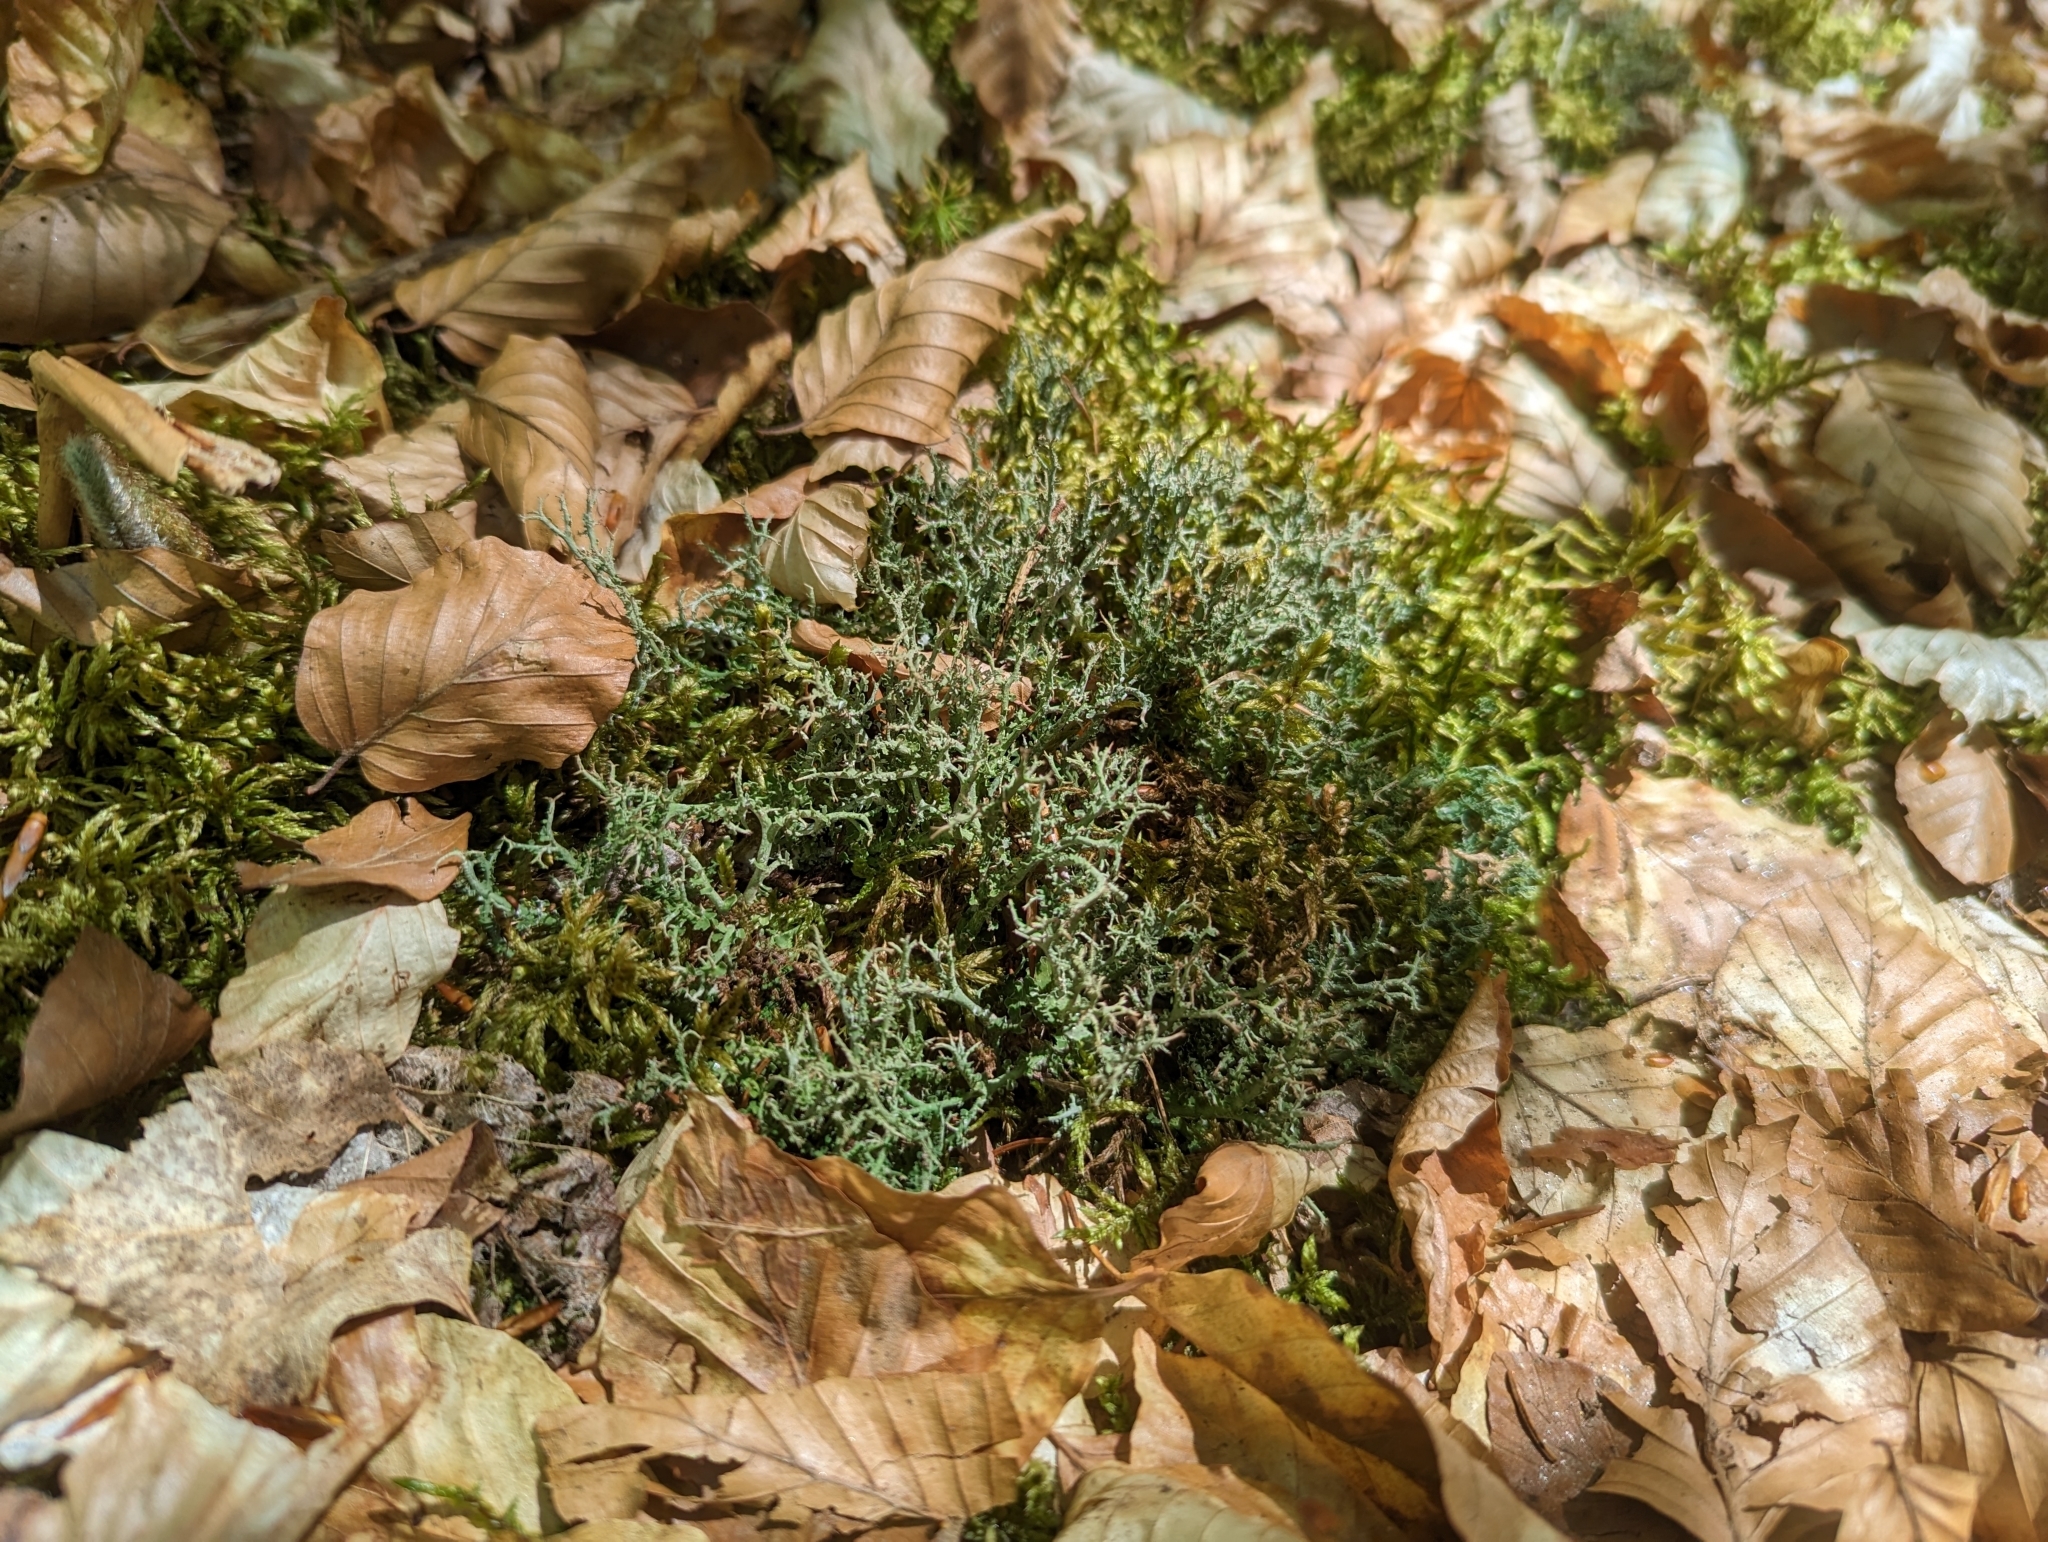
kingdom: Fungi
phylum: Ascomycota
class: Lecanoromycetes
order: Lecanorales
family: Cladoniaceae
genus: Cladonia
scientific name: Cladonia furcata
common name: Many-forked cladonia
